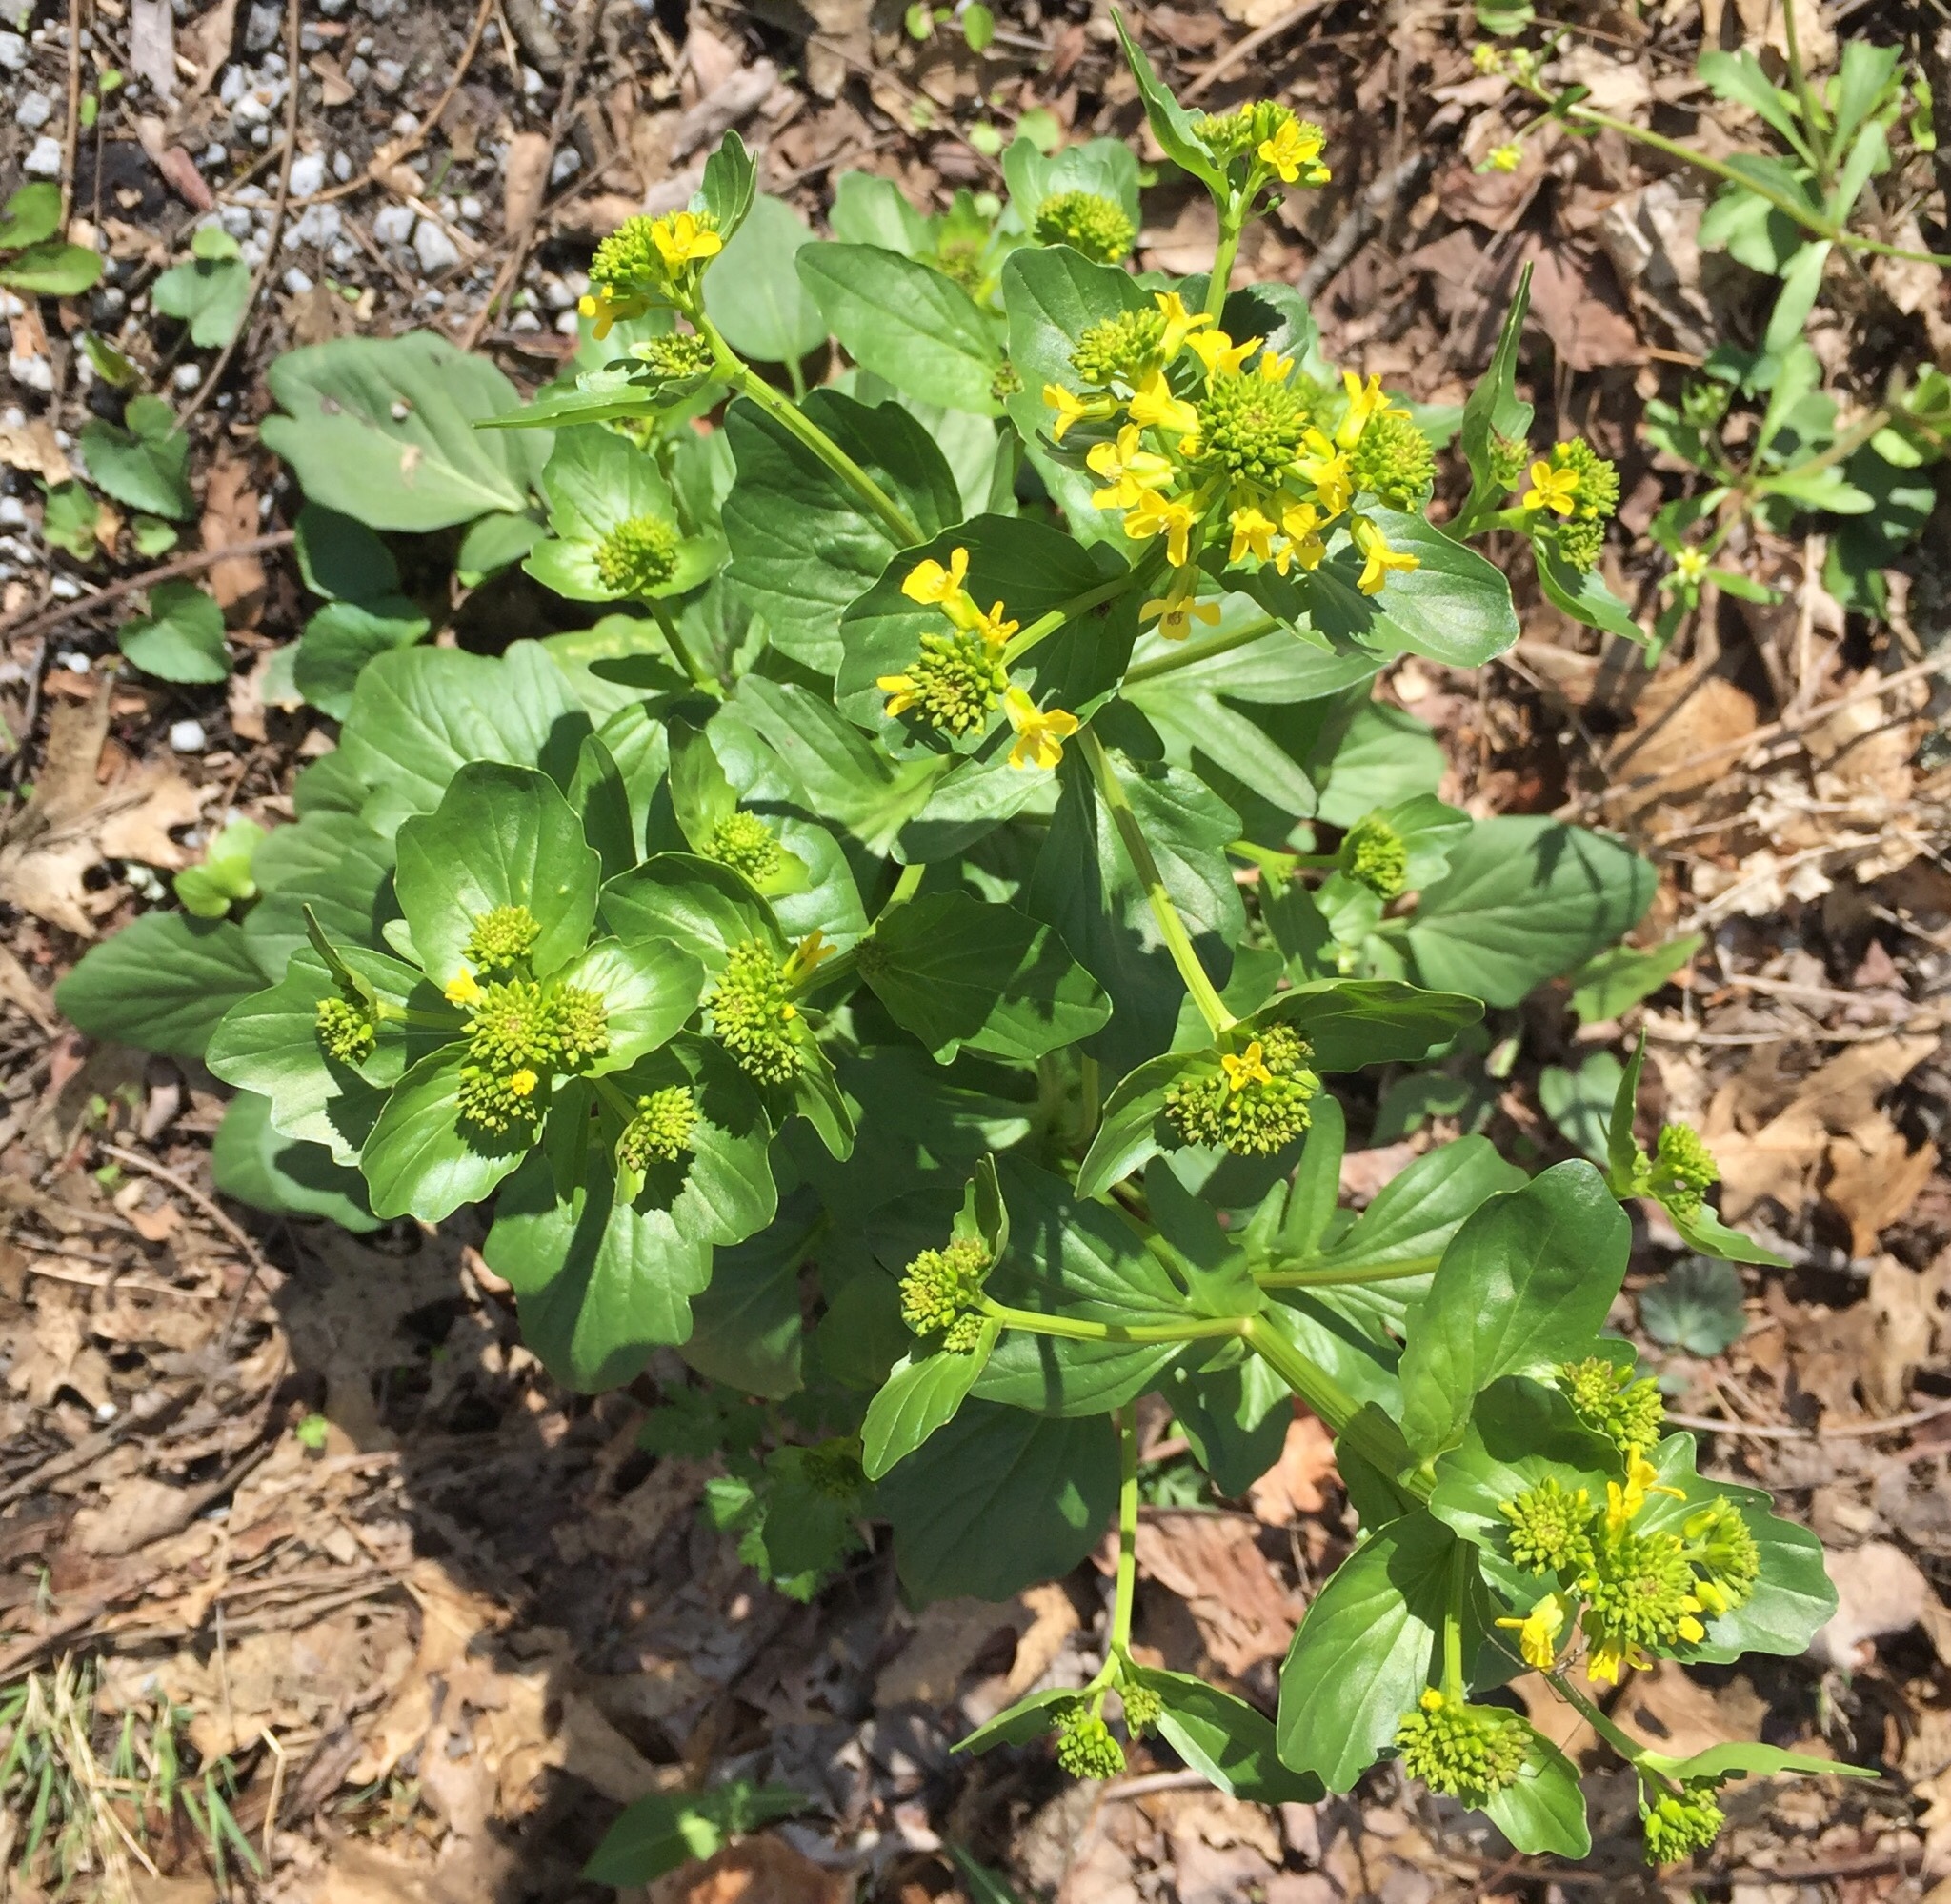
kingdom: Plantae
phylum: Tracheophyta
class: Magnoliopsida
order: Brassicales
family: Brassicaceae
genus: Barbarea
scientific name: Barbarea vulgaris
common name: Cressy-greens
